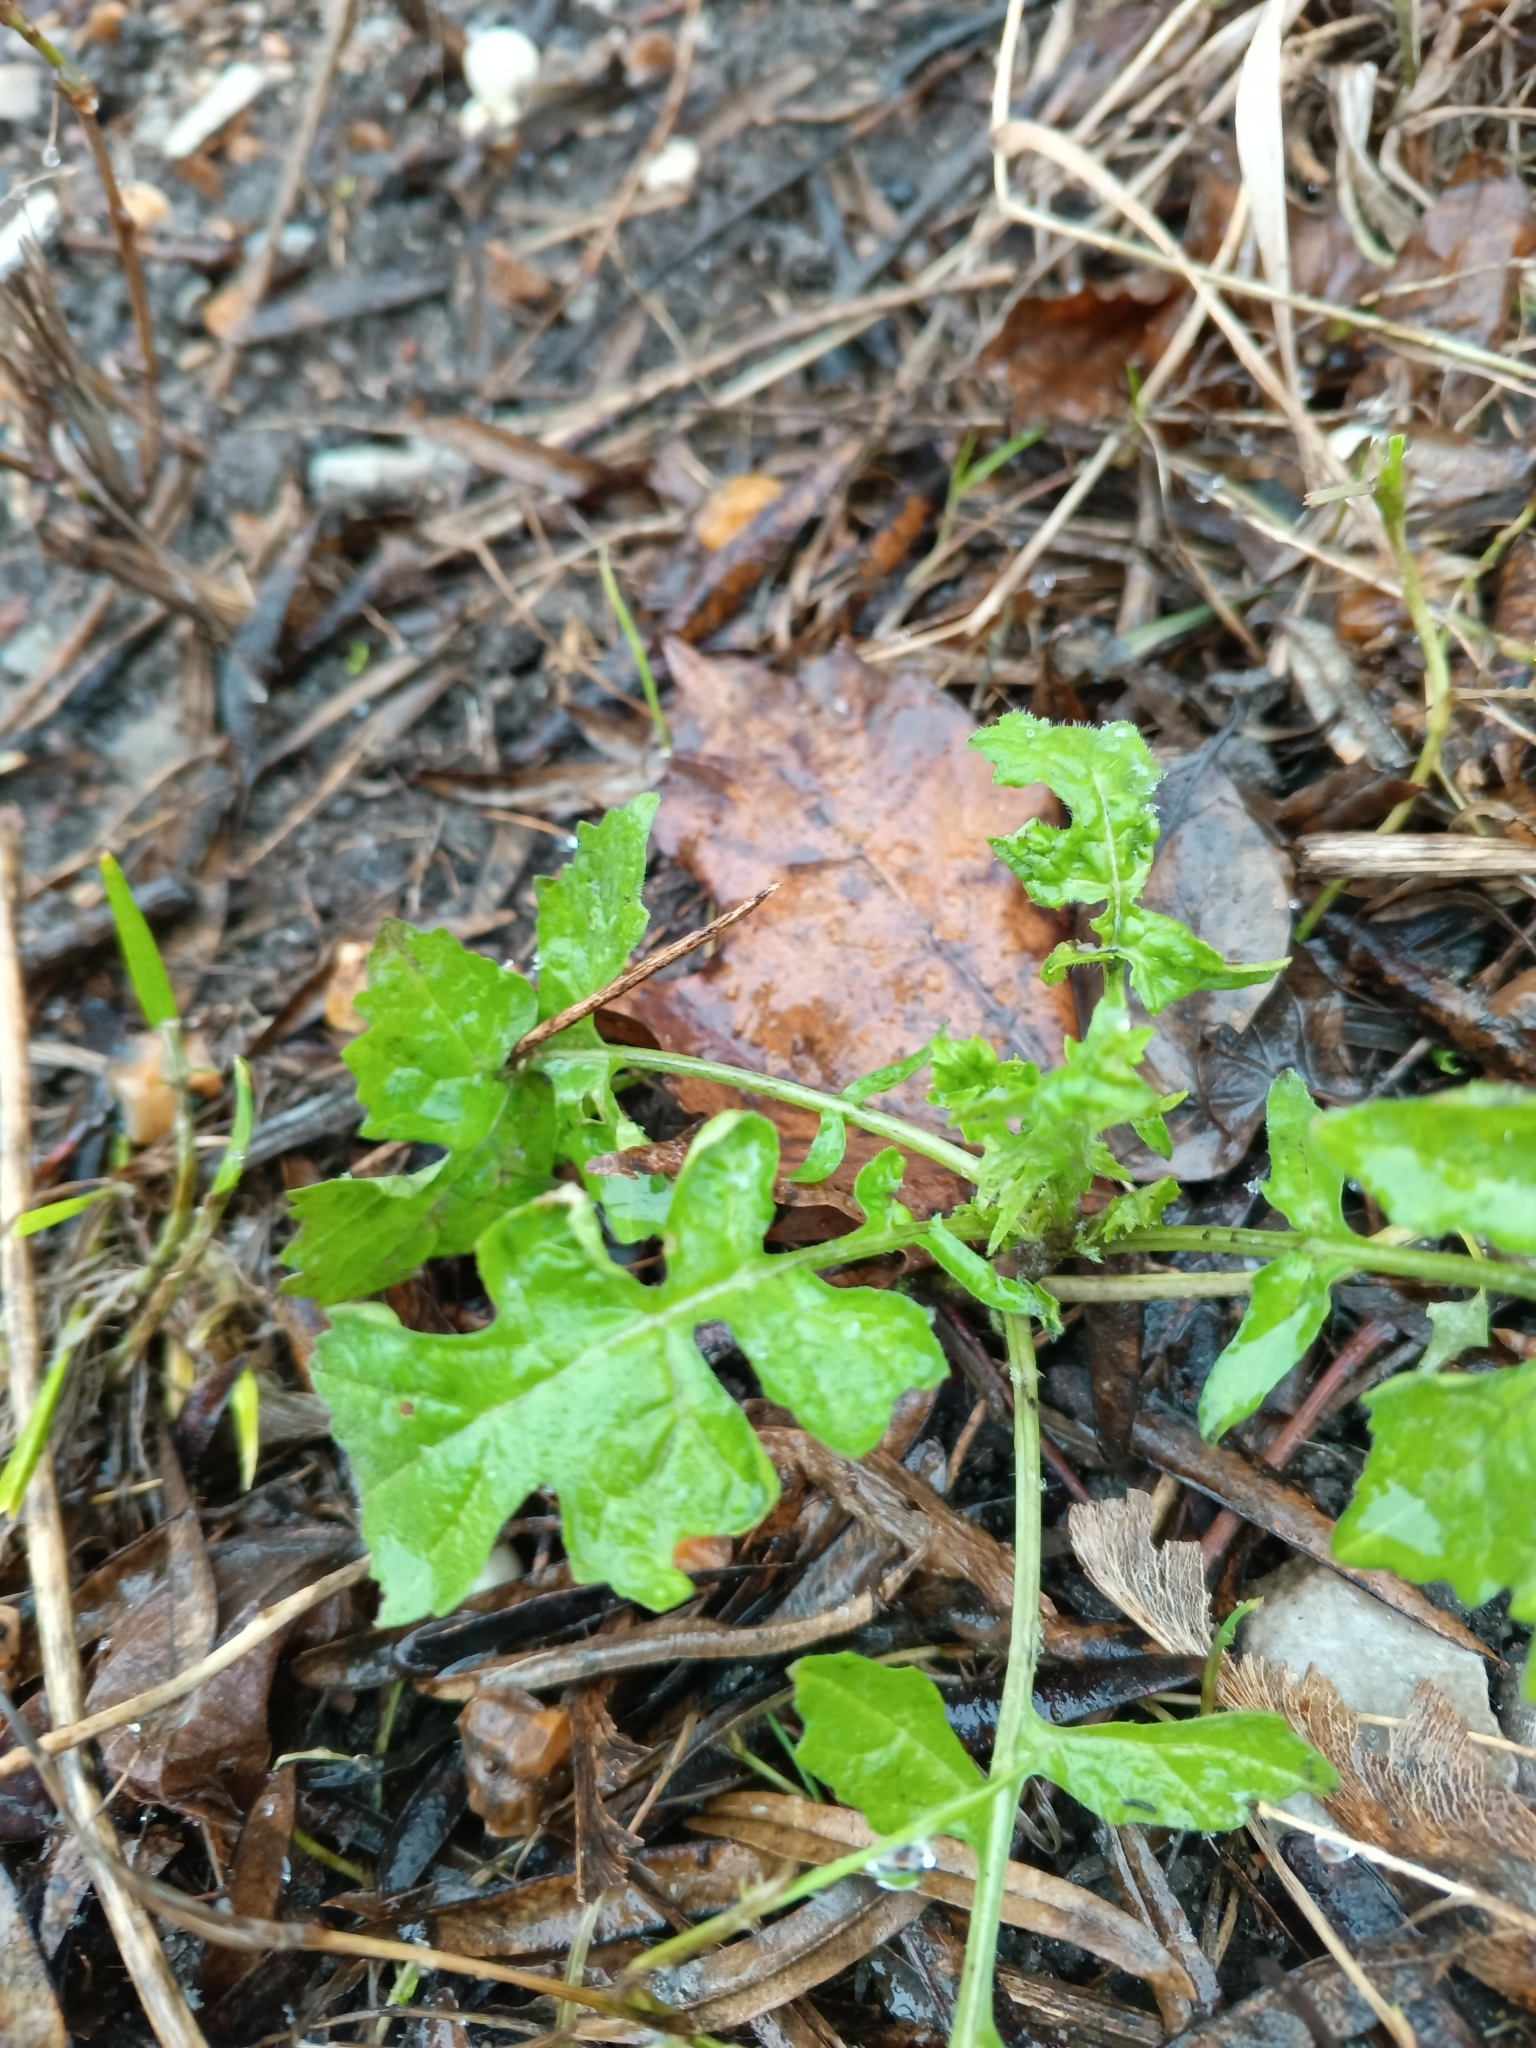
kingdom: Plantae
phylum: Tracheophyta
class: Magnoliopsida
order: Brassicales
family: Brassicaceae
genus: Sisymbrium
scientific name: Sisymbrium officinale
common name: Hedge mustard
